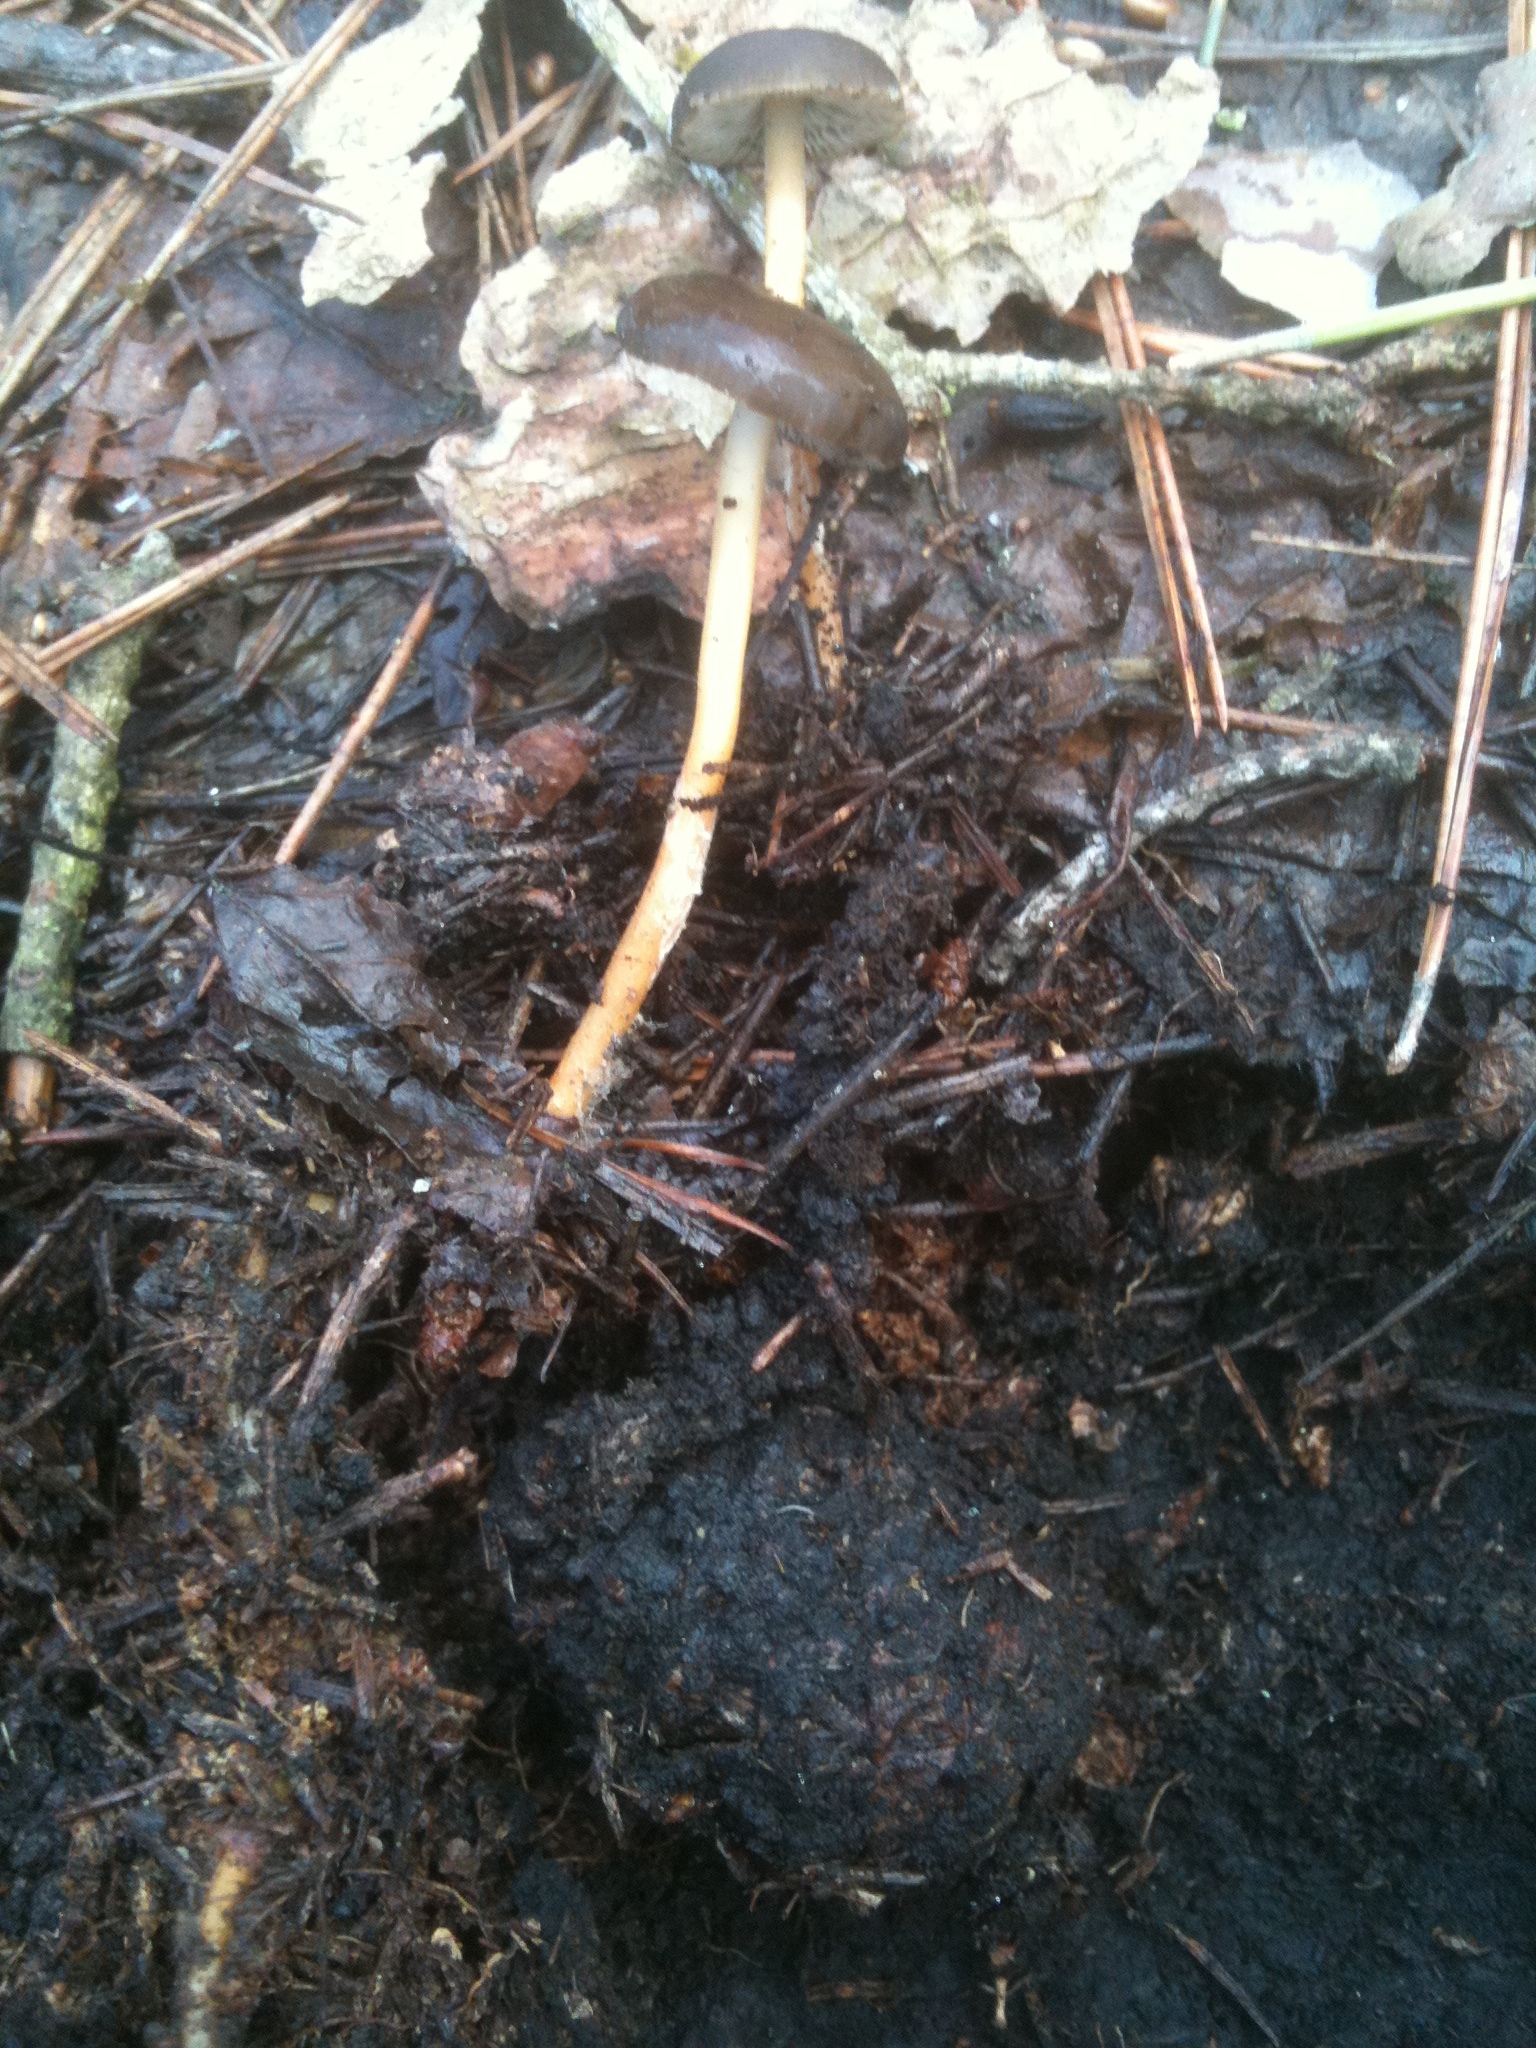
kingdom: Fungi
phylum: Basidiomycota
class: Agaricomycetes
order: Agaricales
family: Physalacriaceae
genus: Strobilurus
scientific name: Strobilurus stephanocystis
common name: Russian conecap
